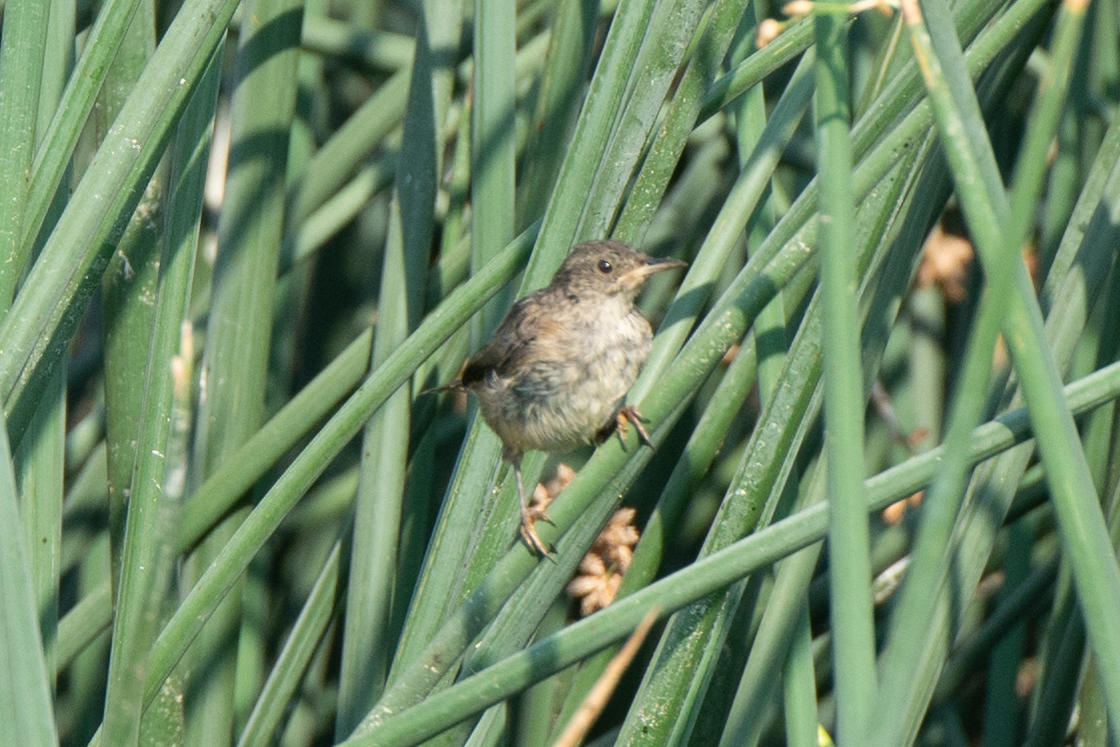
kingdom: Animalia
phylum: Chordata
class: Aves
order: Passeriformes
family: Troglodytidae
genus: Cistothorus
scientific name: Cistothorus palustris
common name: Marsh wren
